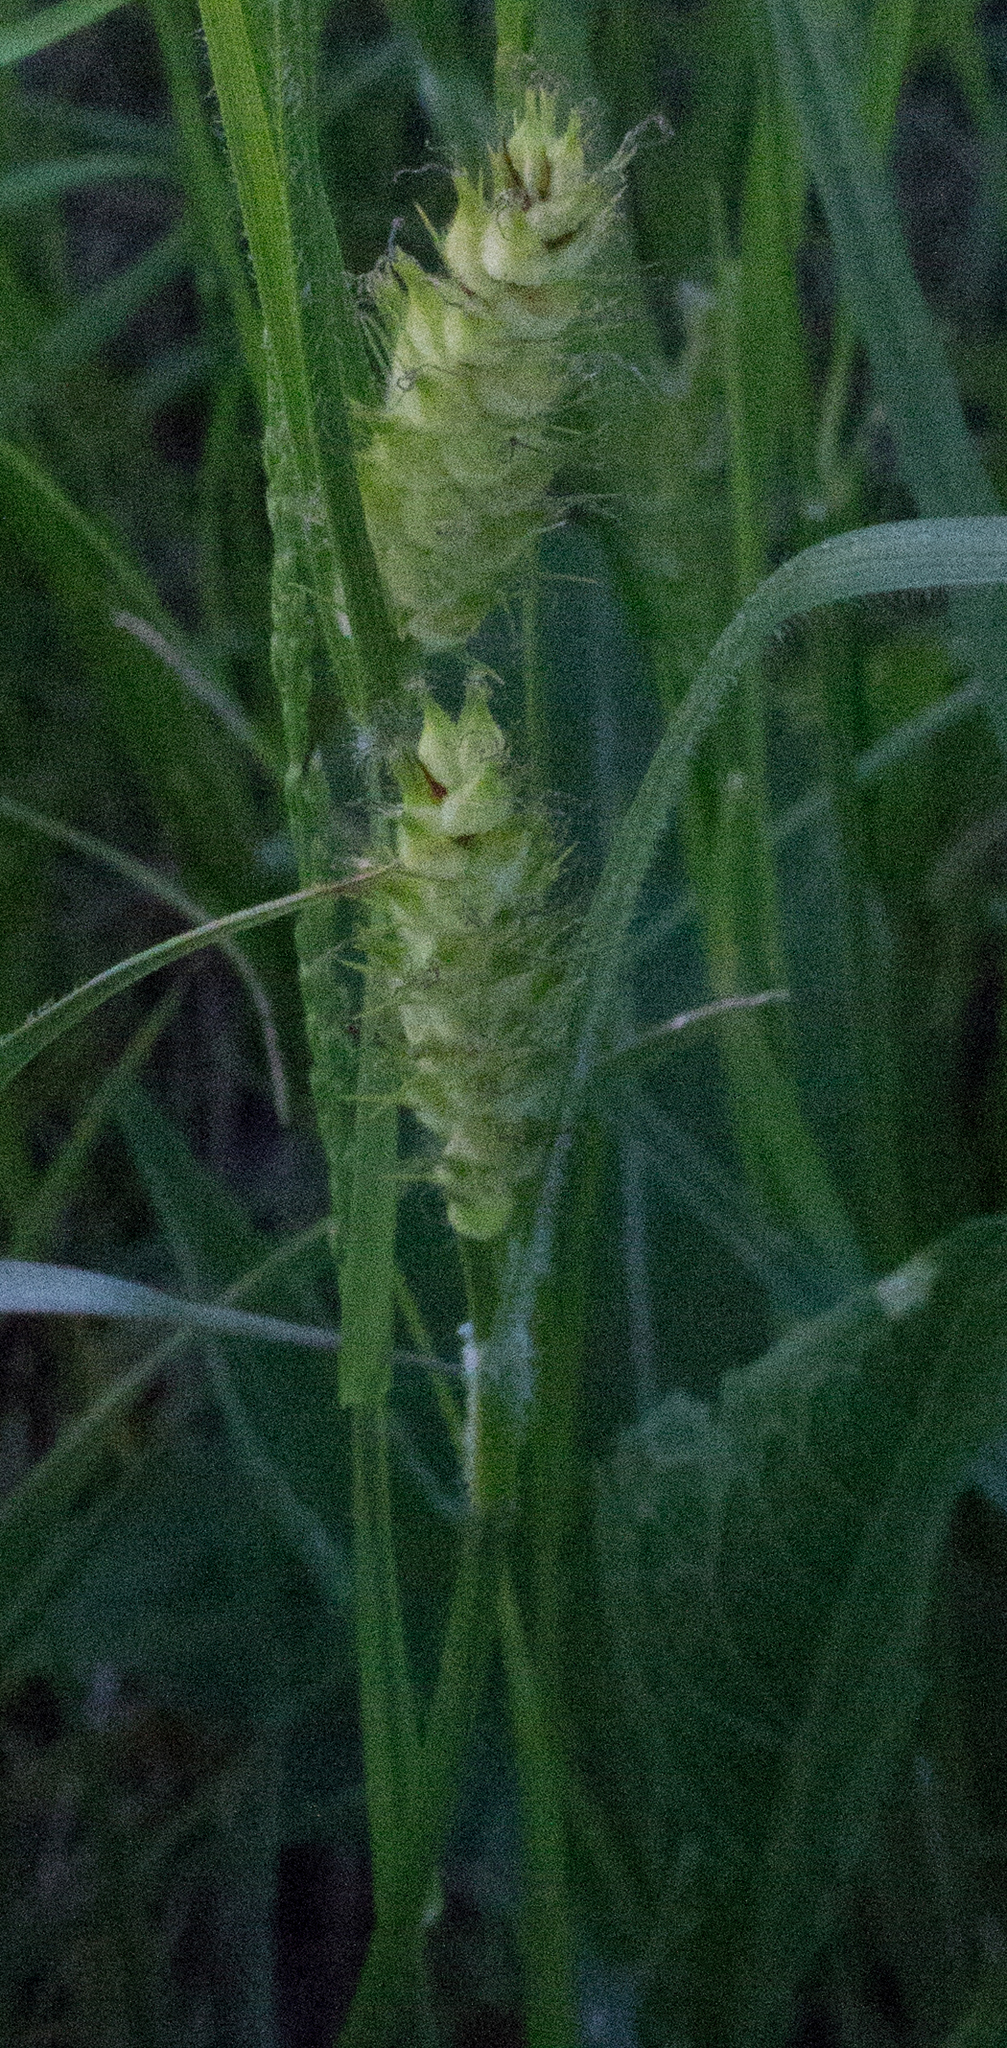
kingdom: Plantae
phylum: Tracheophyta
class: Liliopsida
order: Poales
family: Cyperaceae
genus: Carex
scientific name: Carex hirta
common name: Hairy sedge
